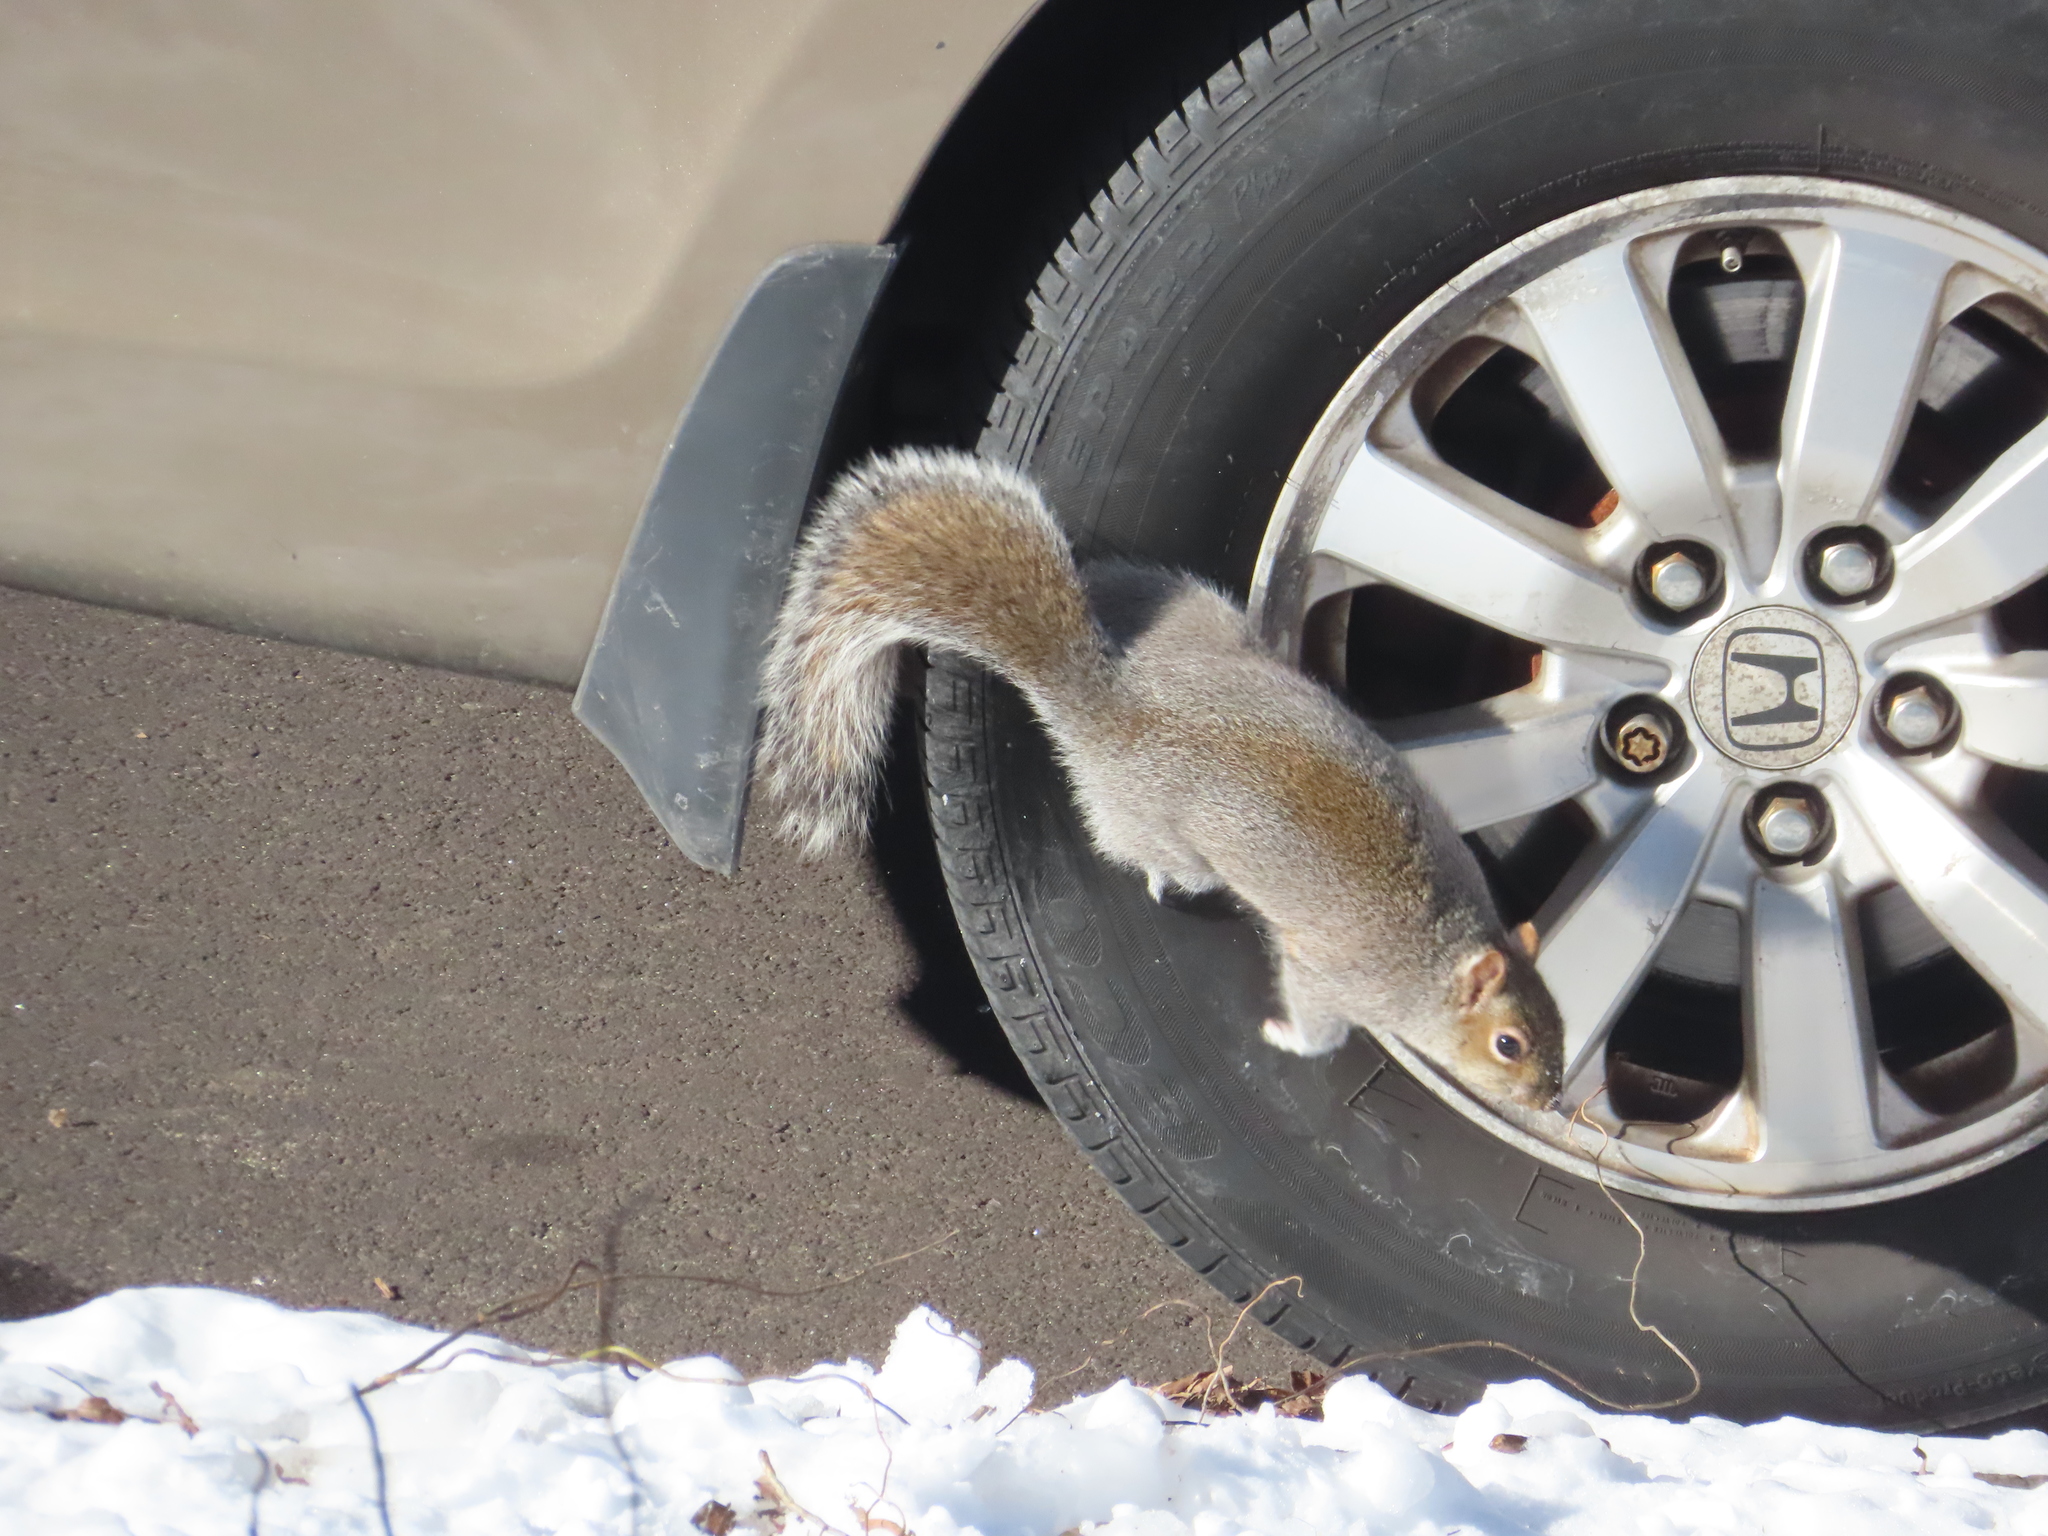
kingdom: Animalia
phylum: Chordata
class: Mammalia
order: Rodentia
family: Sciuridae
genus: Sciurus
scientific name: Sciurus carolinensis
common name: Eastern gray squirrel
